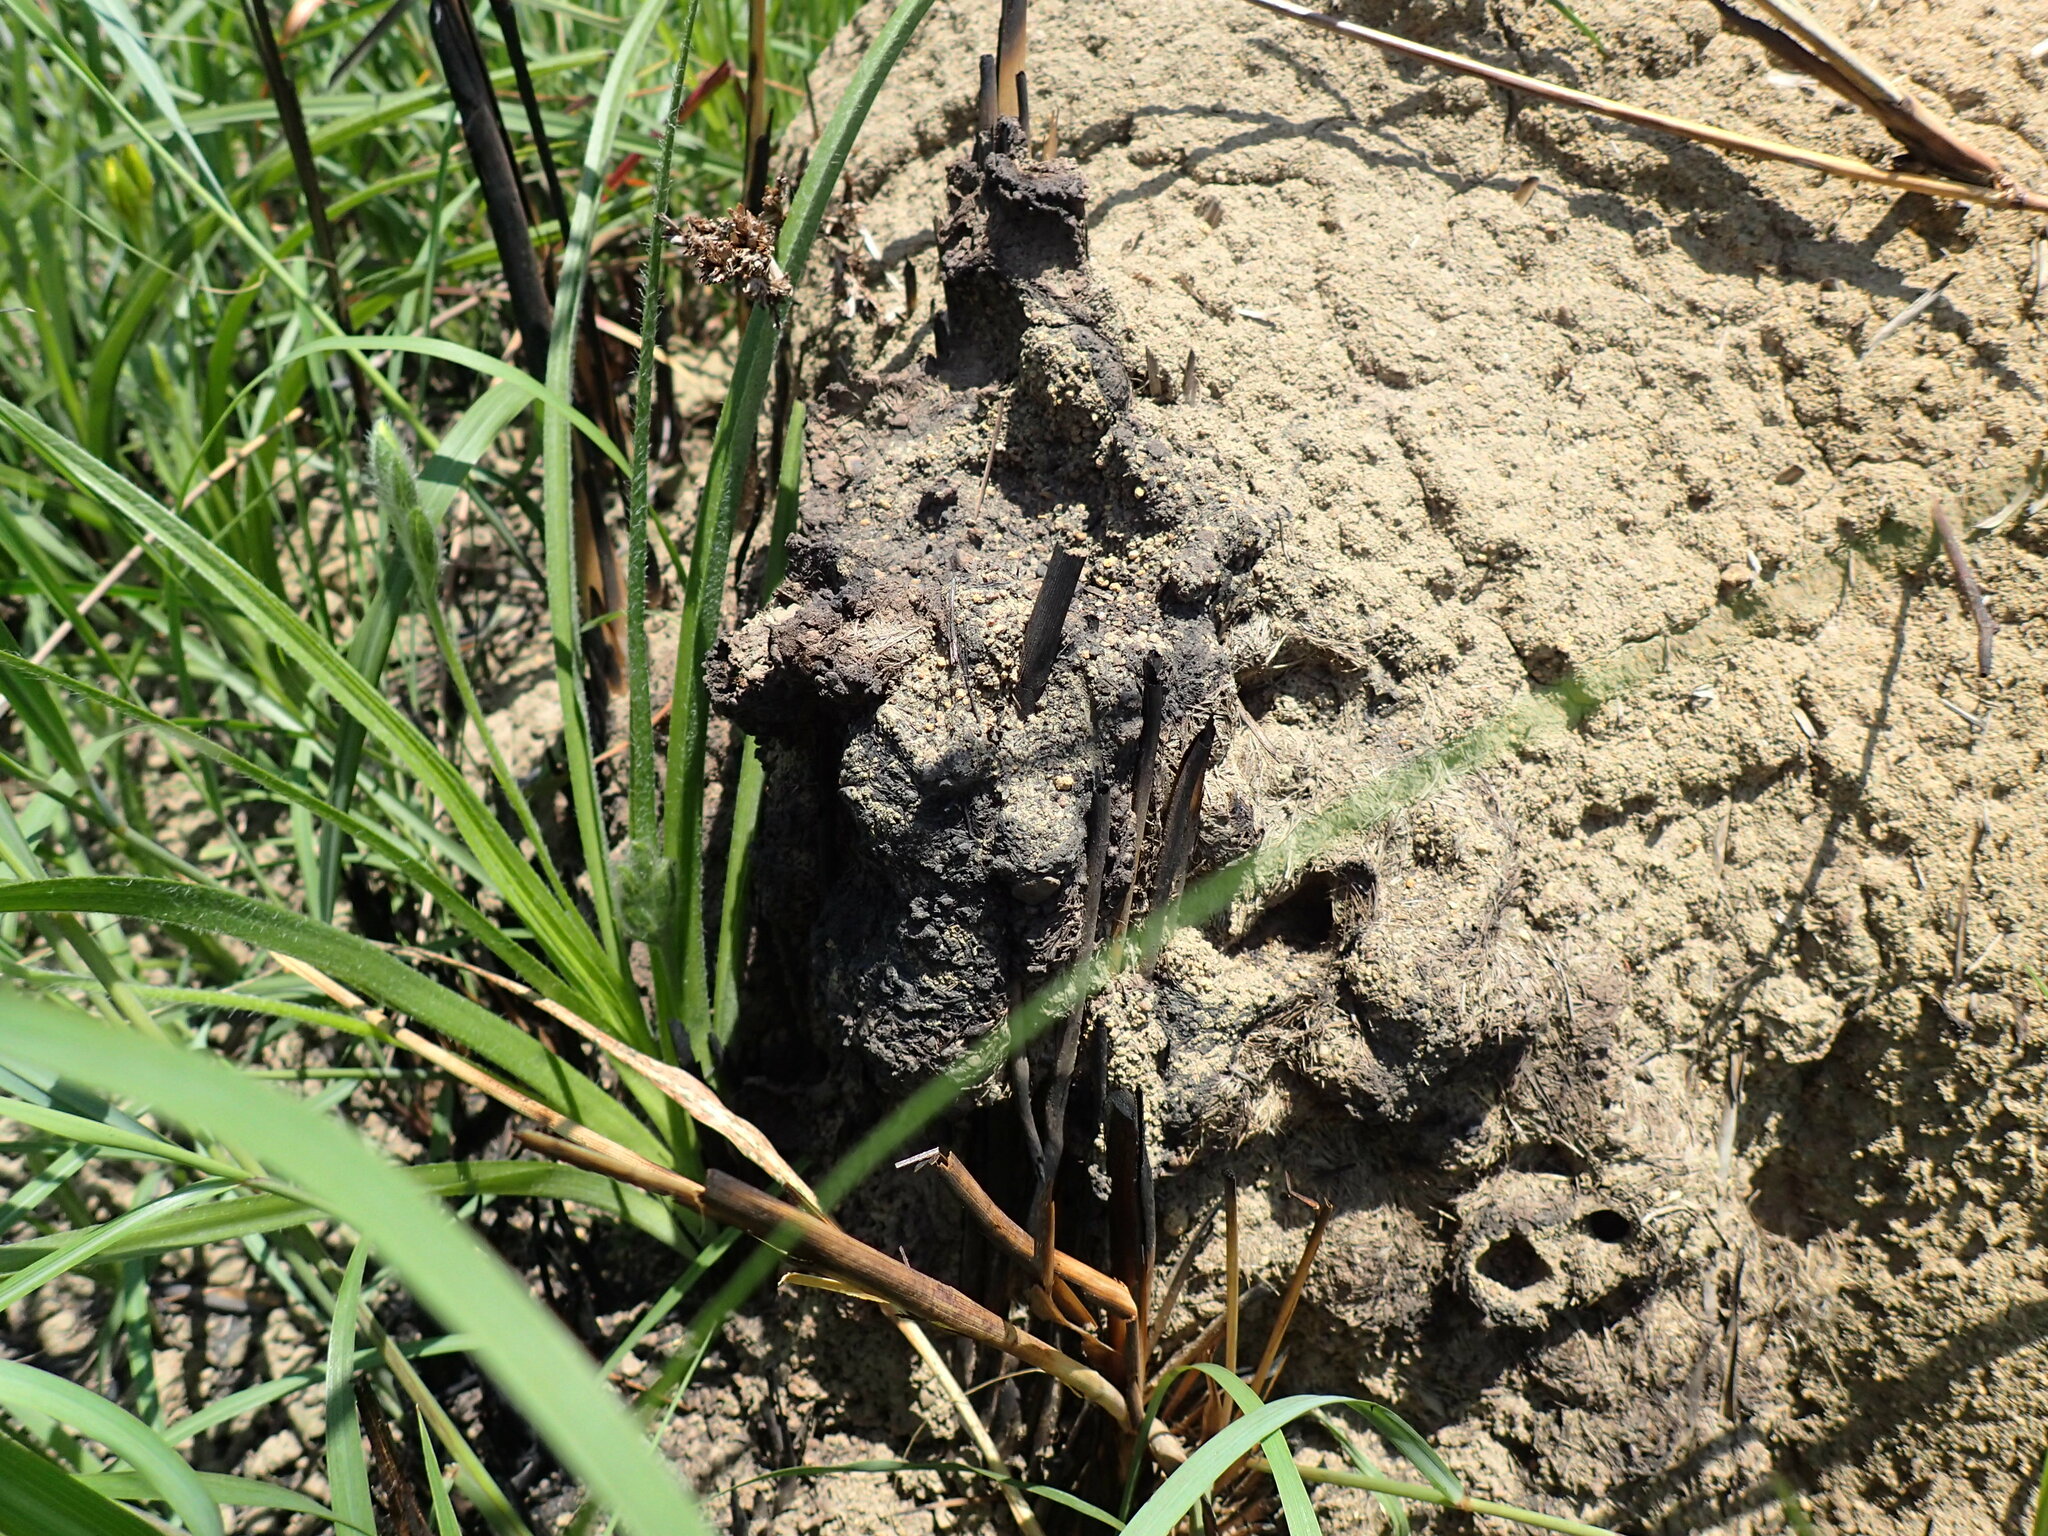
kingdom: Animalia
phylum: Arthropoda
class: Insecta
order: Hymenoptera
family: Formicidae
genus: Polyrhachis
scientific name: Polyrhachis schistacea
